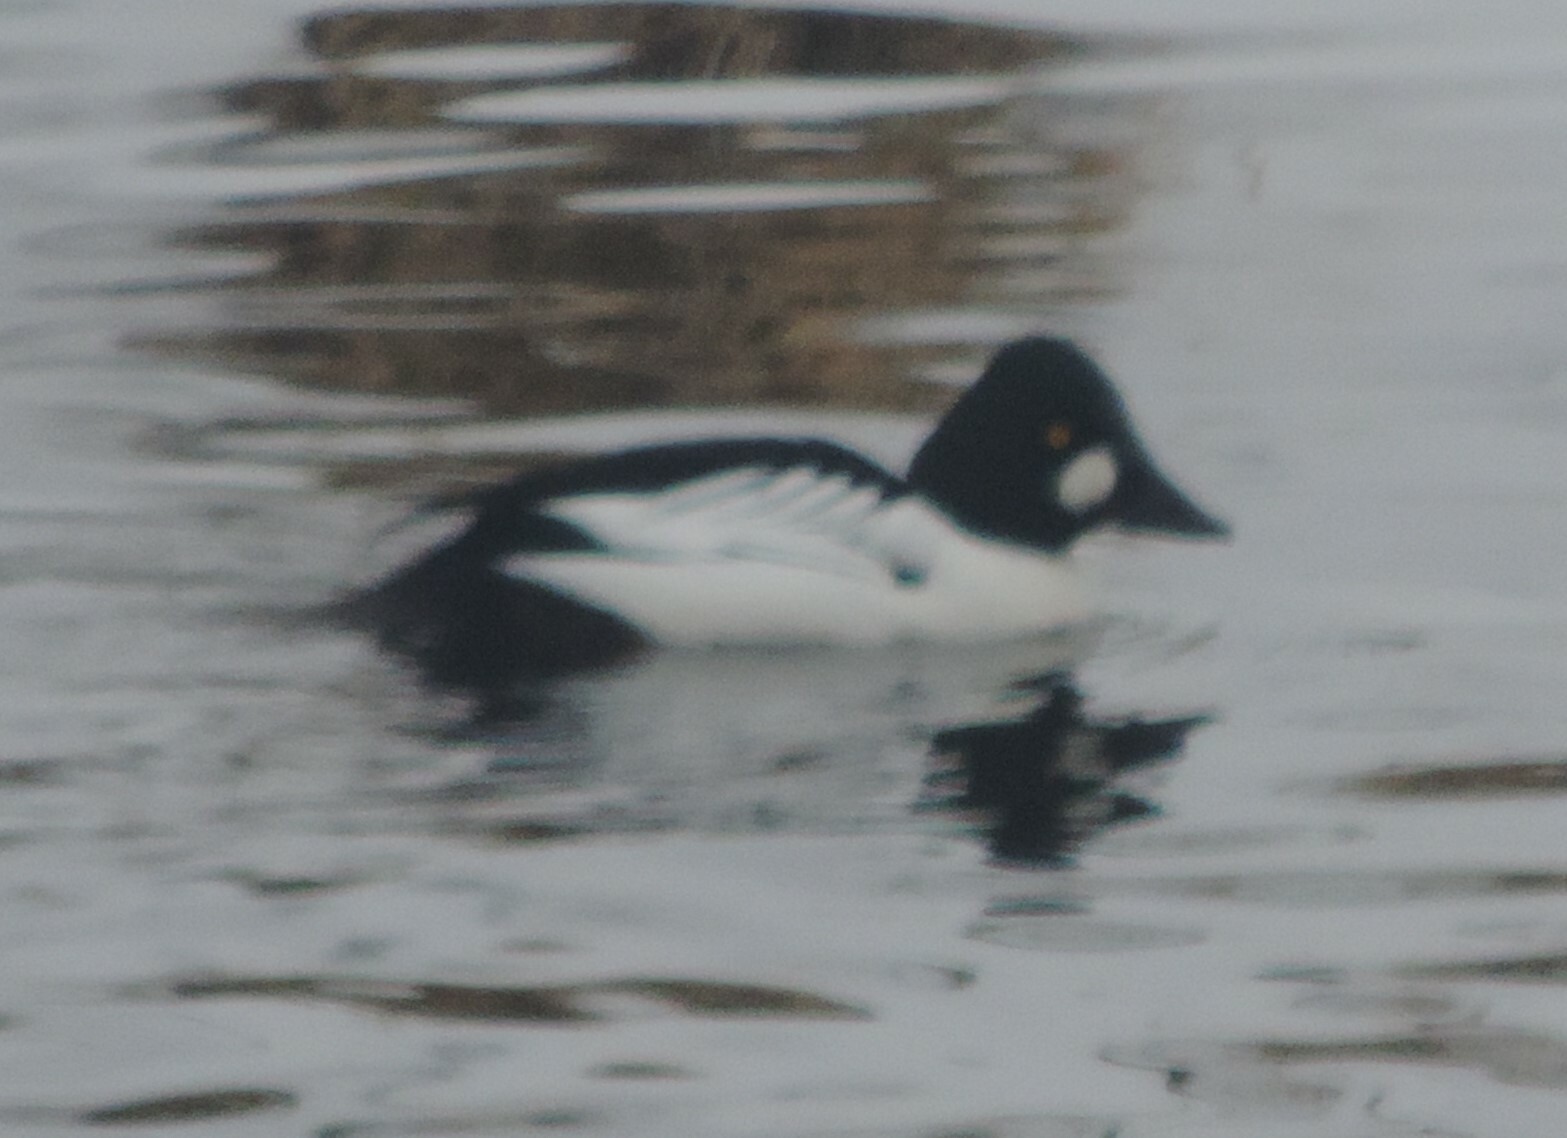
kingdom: Animalia
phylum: Chordata
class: Aves
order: Anseriformes
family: Anatidae
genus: Bucephala
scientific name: Bucephala clangula
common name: Common goldeneye
